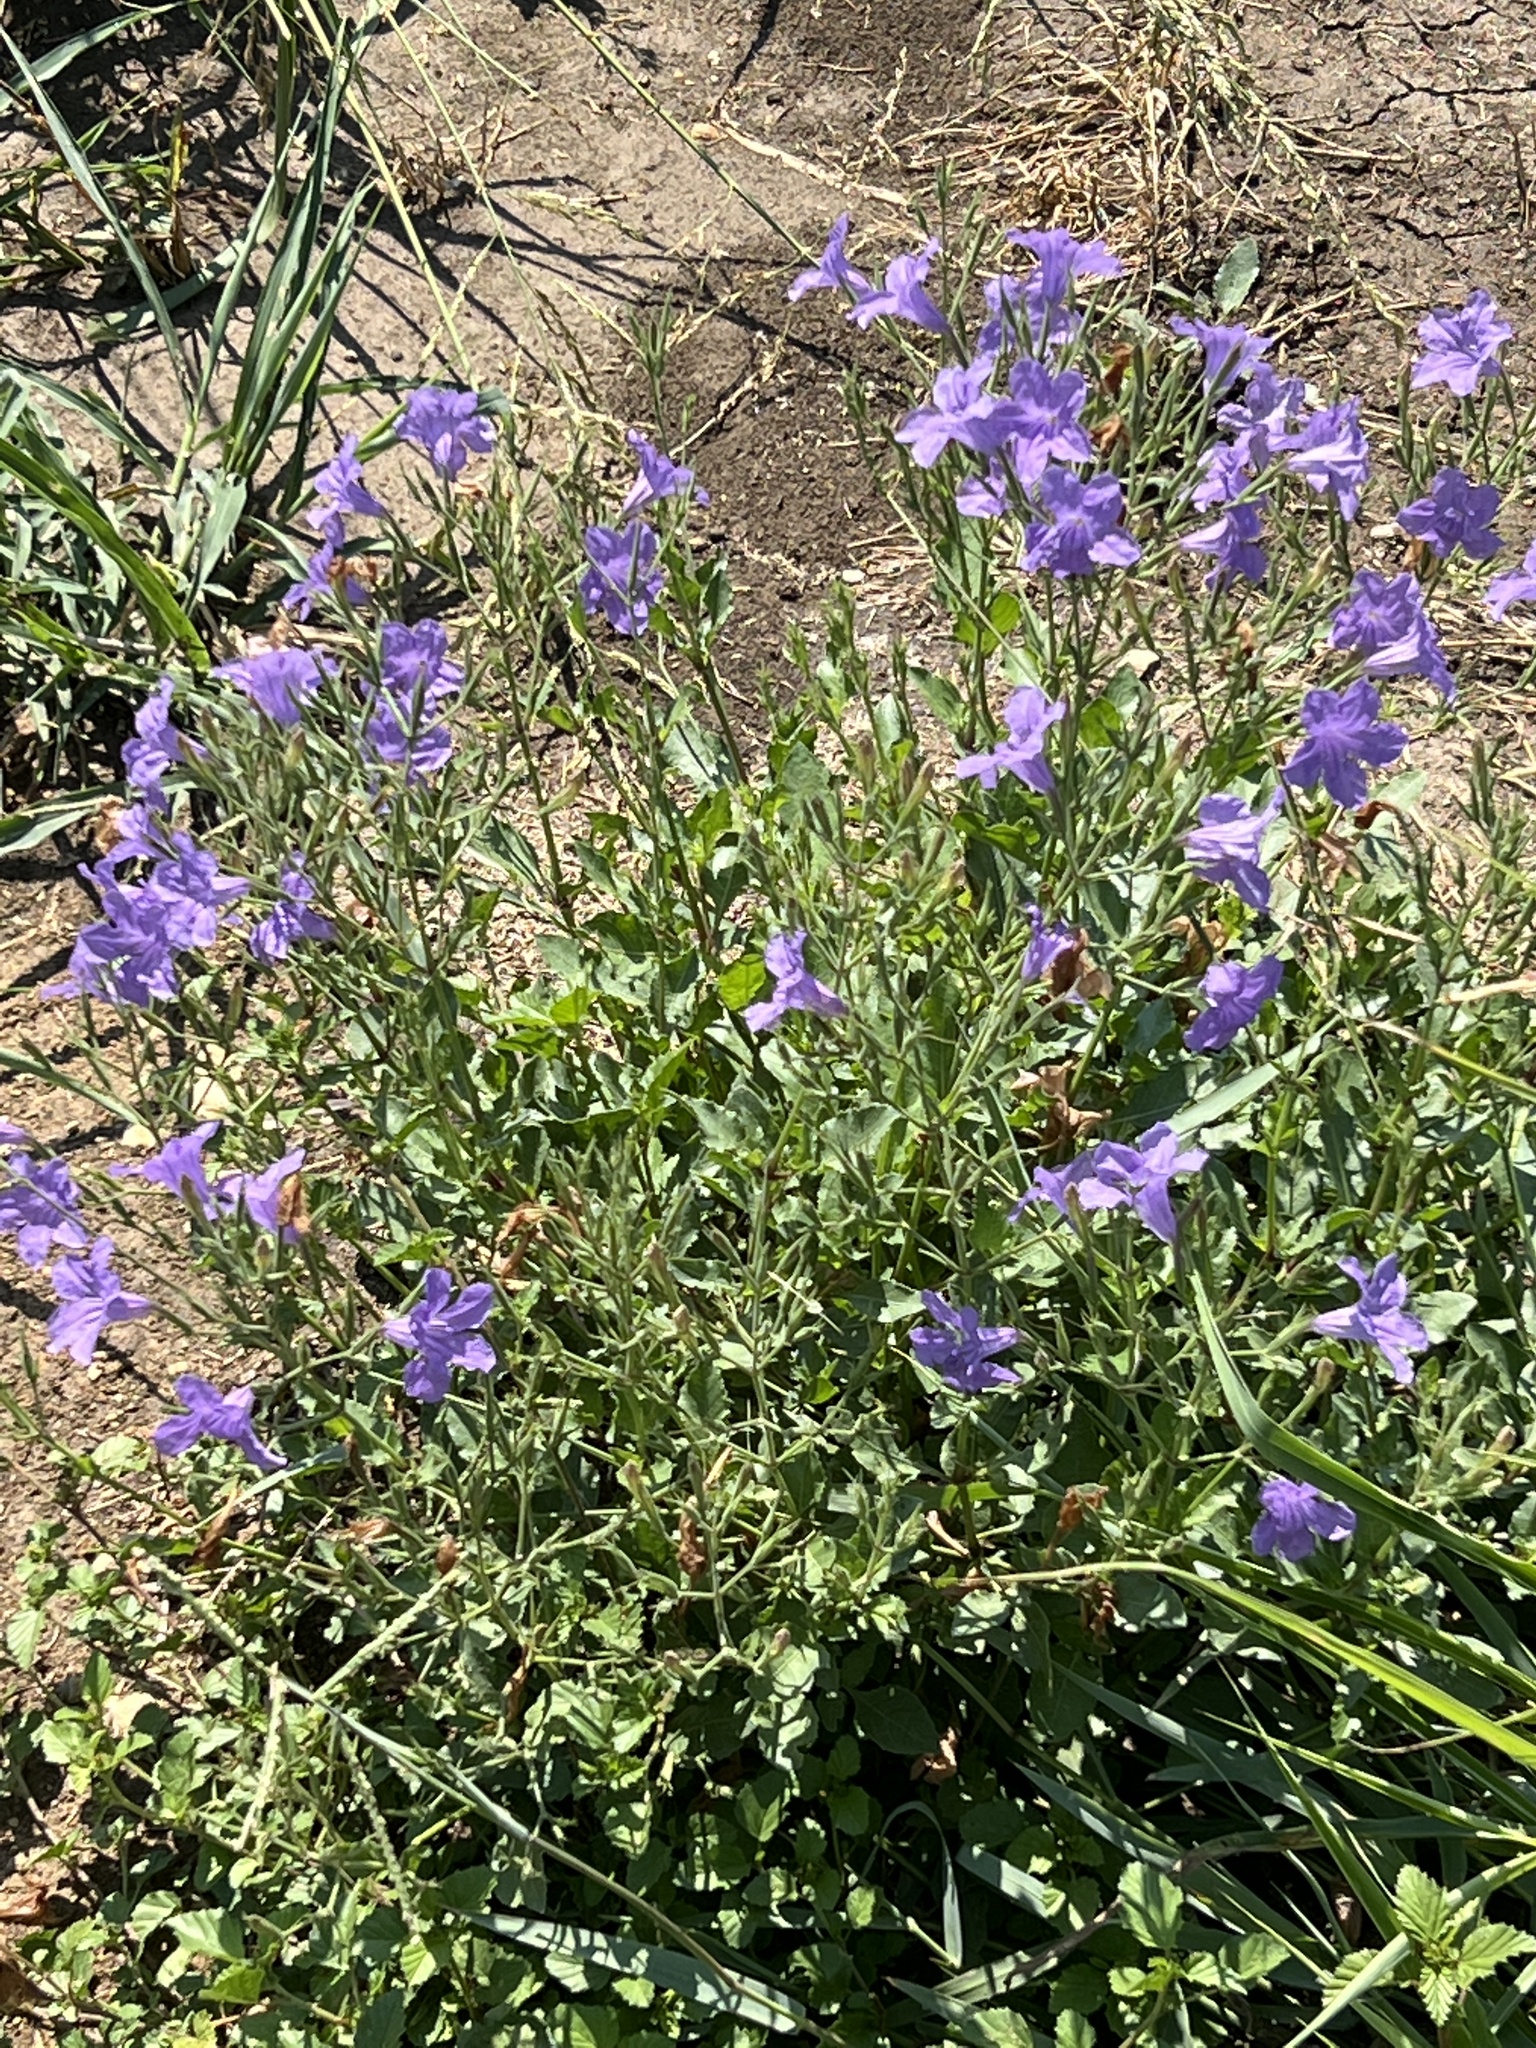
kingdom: Plantae
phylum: Tracheophyta
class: Magnoliopsida
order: Lamiales
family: Acanthaceae
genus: Ruellia
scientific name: Ruellia ciliatiflora
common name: Hairyflower wild petunia
